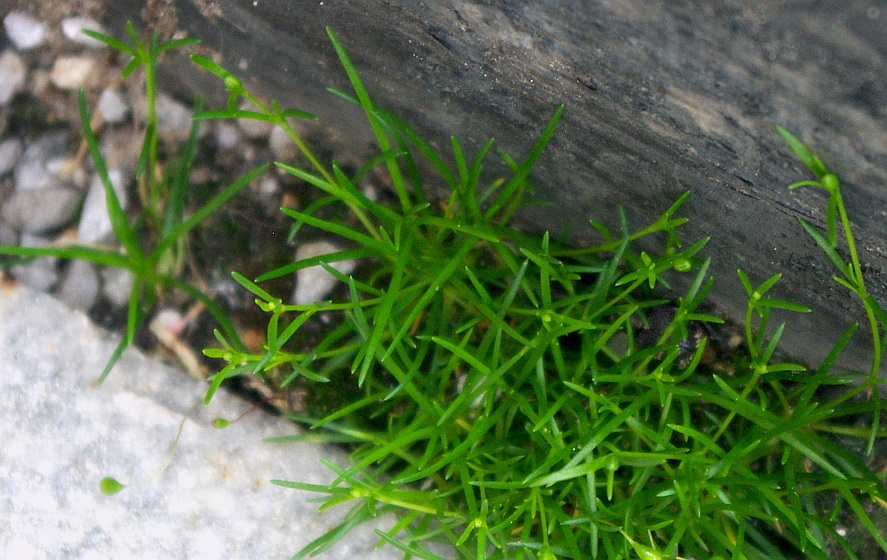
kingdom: Plantae
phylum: Tracheophyta
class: Magnoliopsida
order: Caryophyllales
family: Caryophyllaceae
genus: Sagina
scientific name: Sagina procumbens
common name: Procumbent pearlwort
